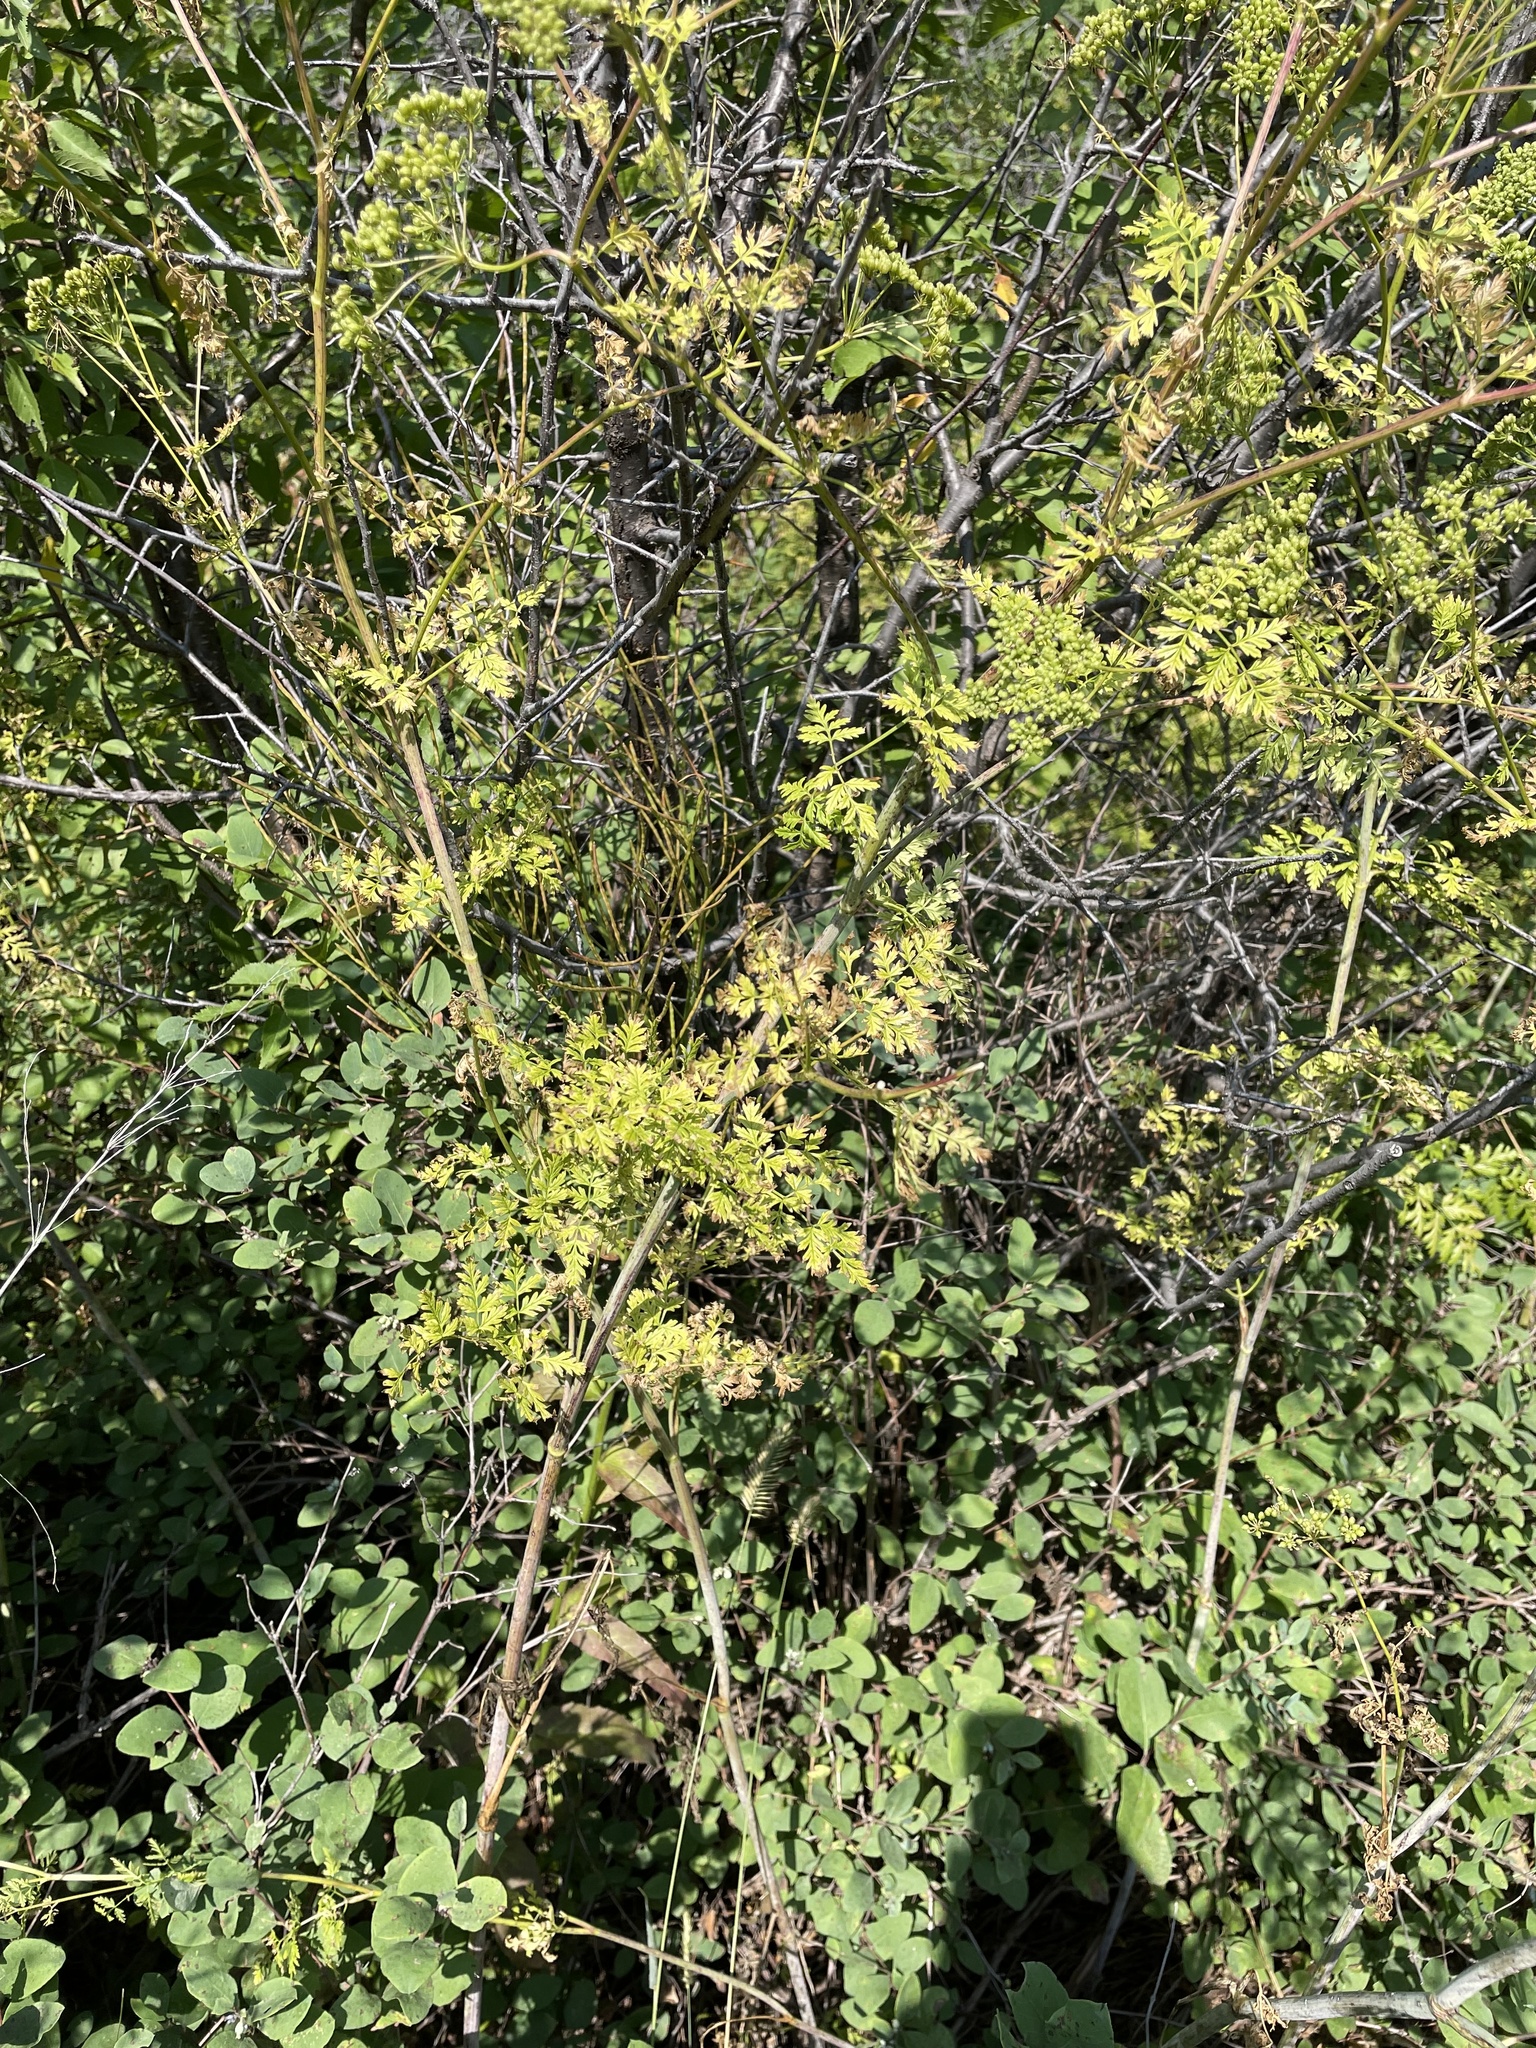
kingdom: Plantae
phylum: Tracheophyta
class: Magnoliopsida
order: Apiales
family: Apiaceae
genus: Conium
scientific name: Conium maculatum
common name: Hemlock
